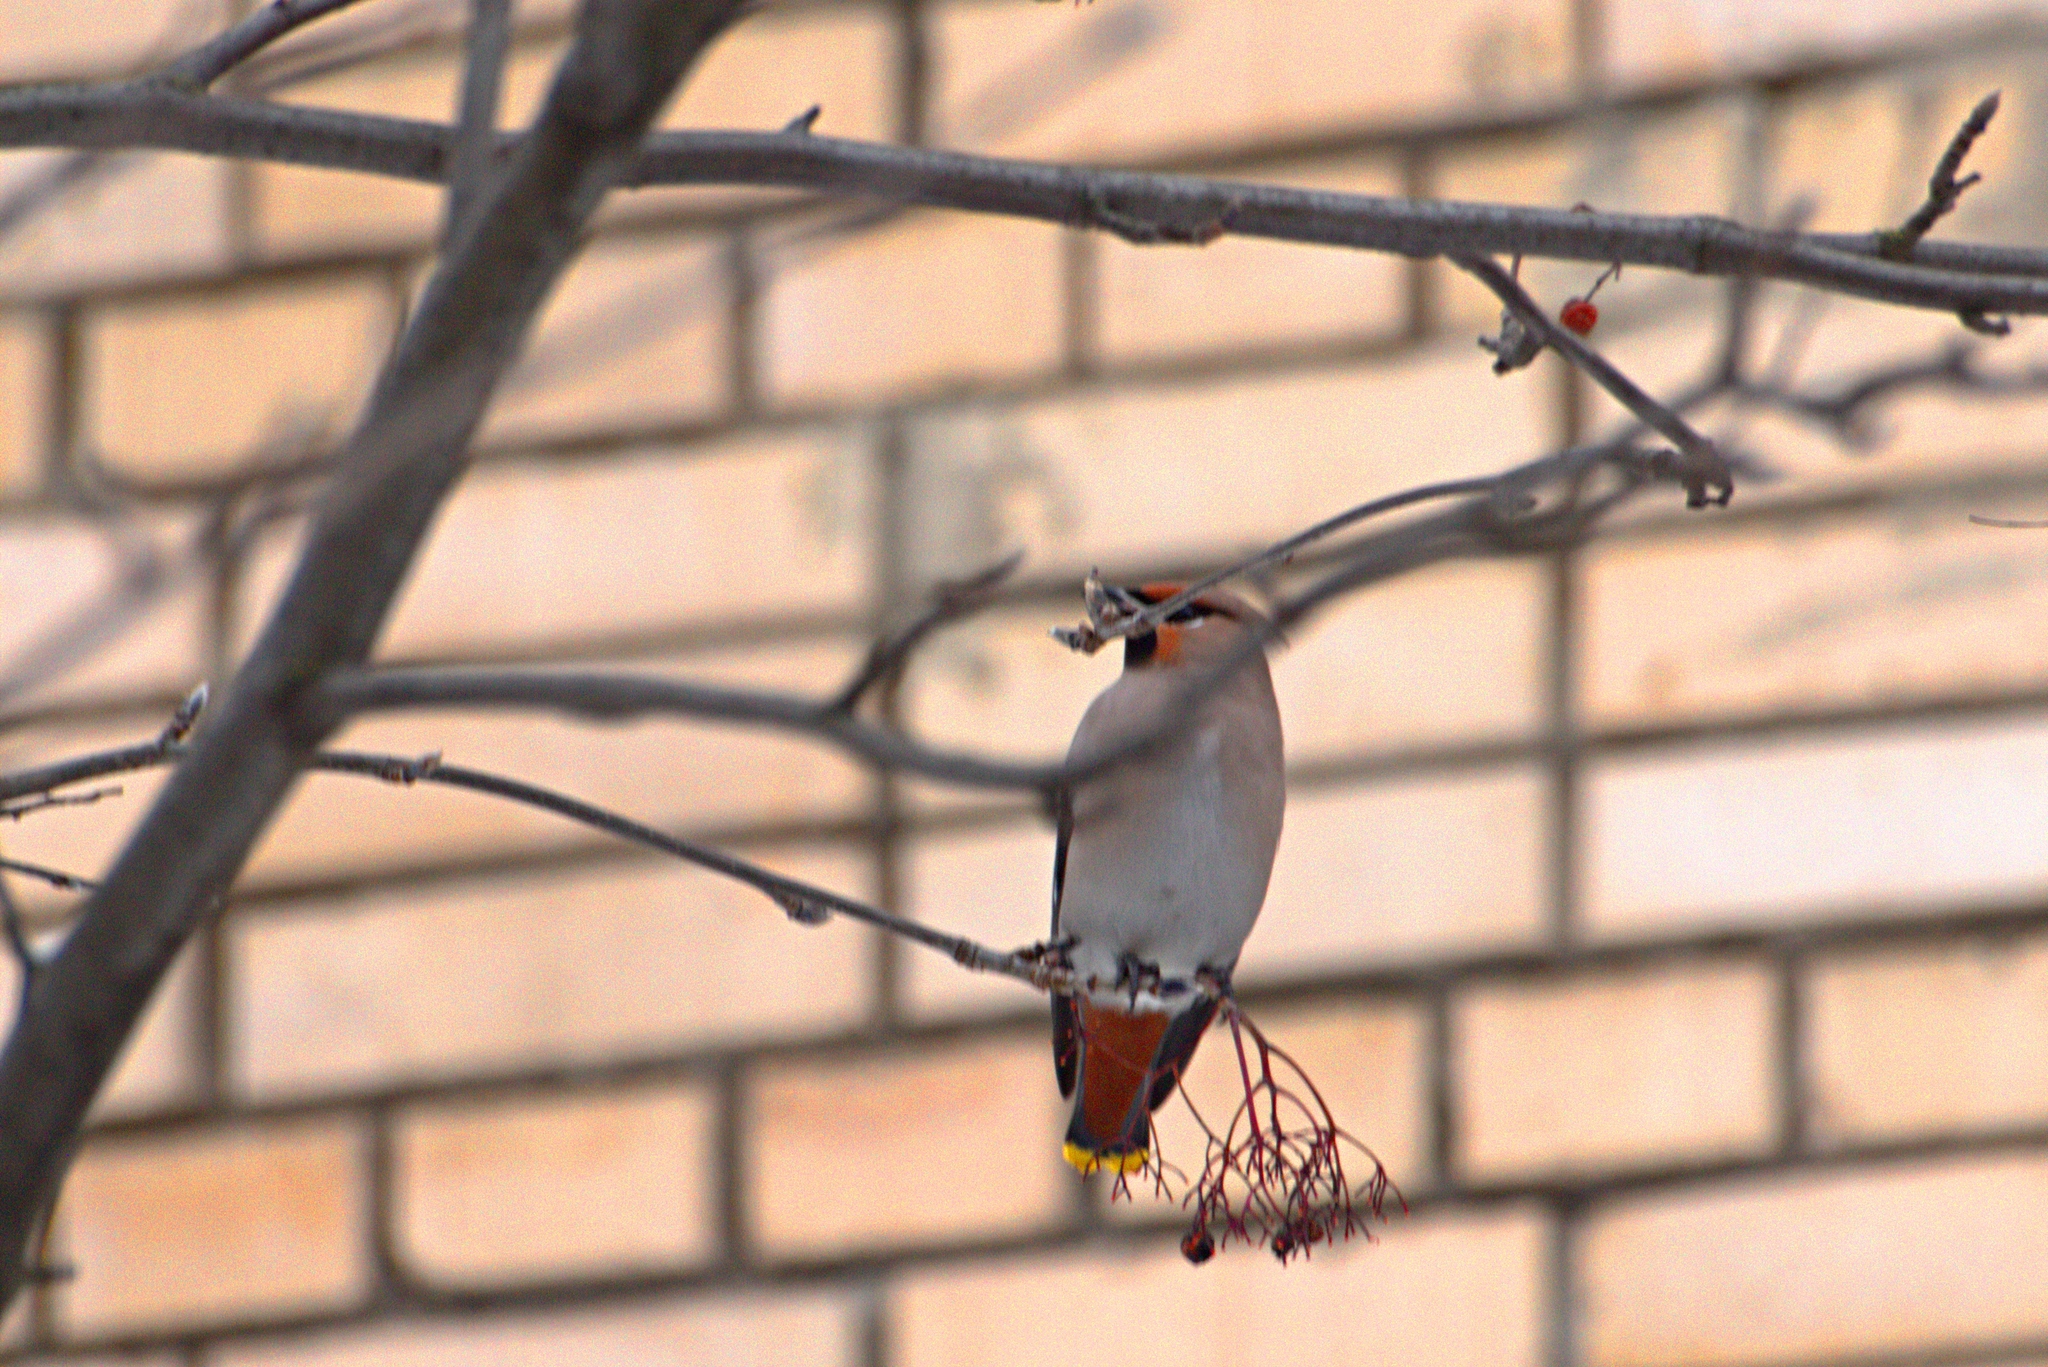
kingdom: Animalia
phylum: Chordata
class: Aves
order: Passeriformes
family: Bombycillidae
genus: Bombycilla
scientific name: Bombycilla garrulus
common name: Bohemian waxwing
